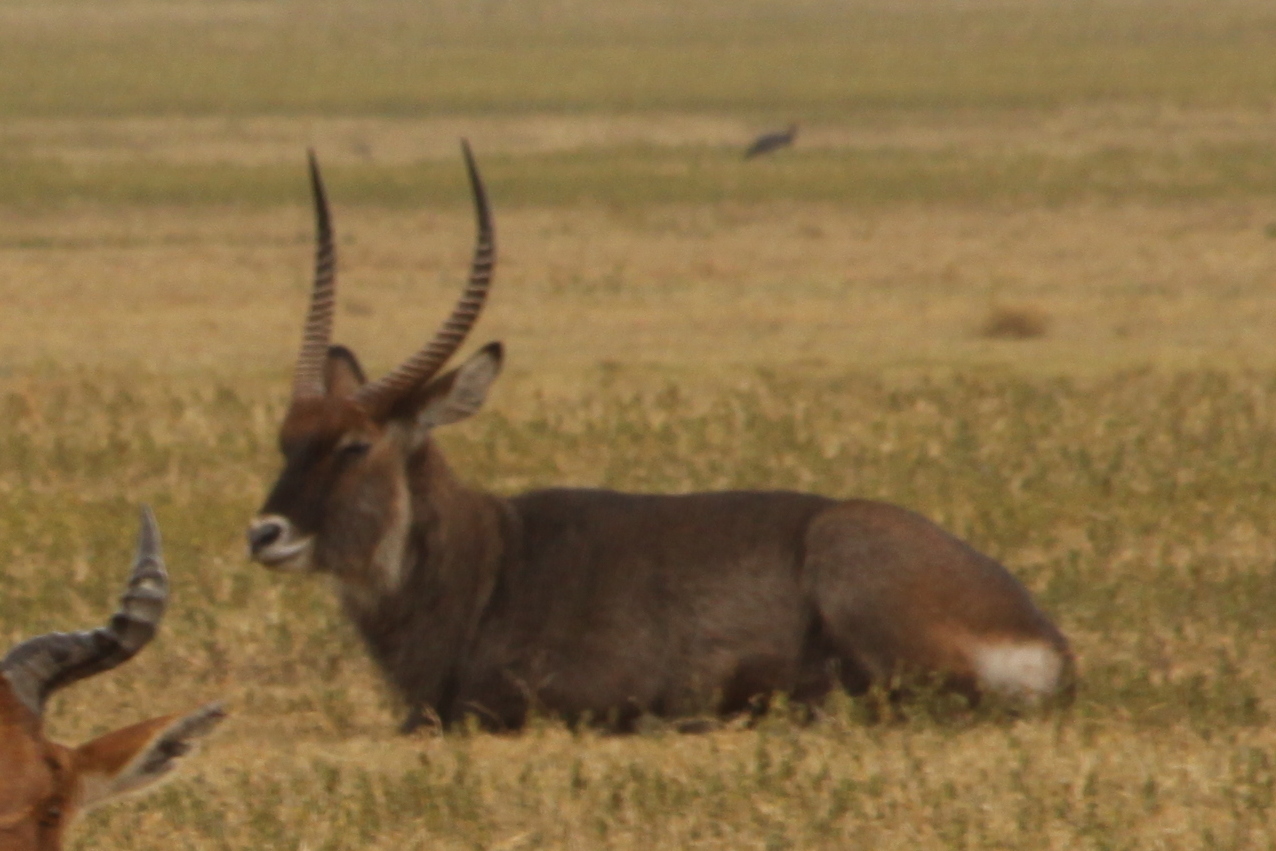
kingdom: Animalia
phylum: Chordata
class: Mammalia
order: Artiodactyla
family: Bovidae
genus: Kobus
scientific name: Kobus ellipsiprymnus
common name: Waterbuck
